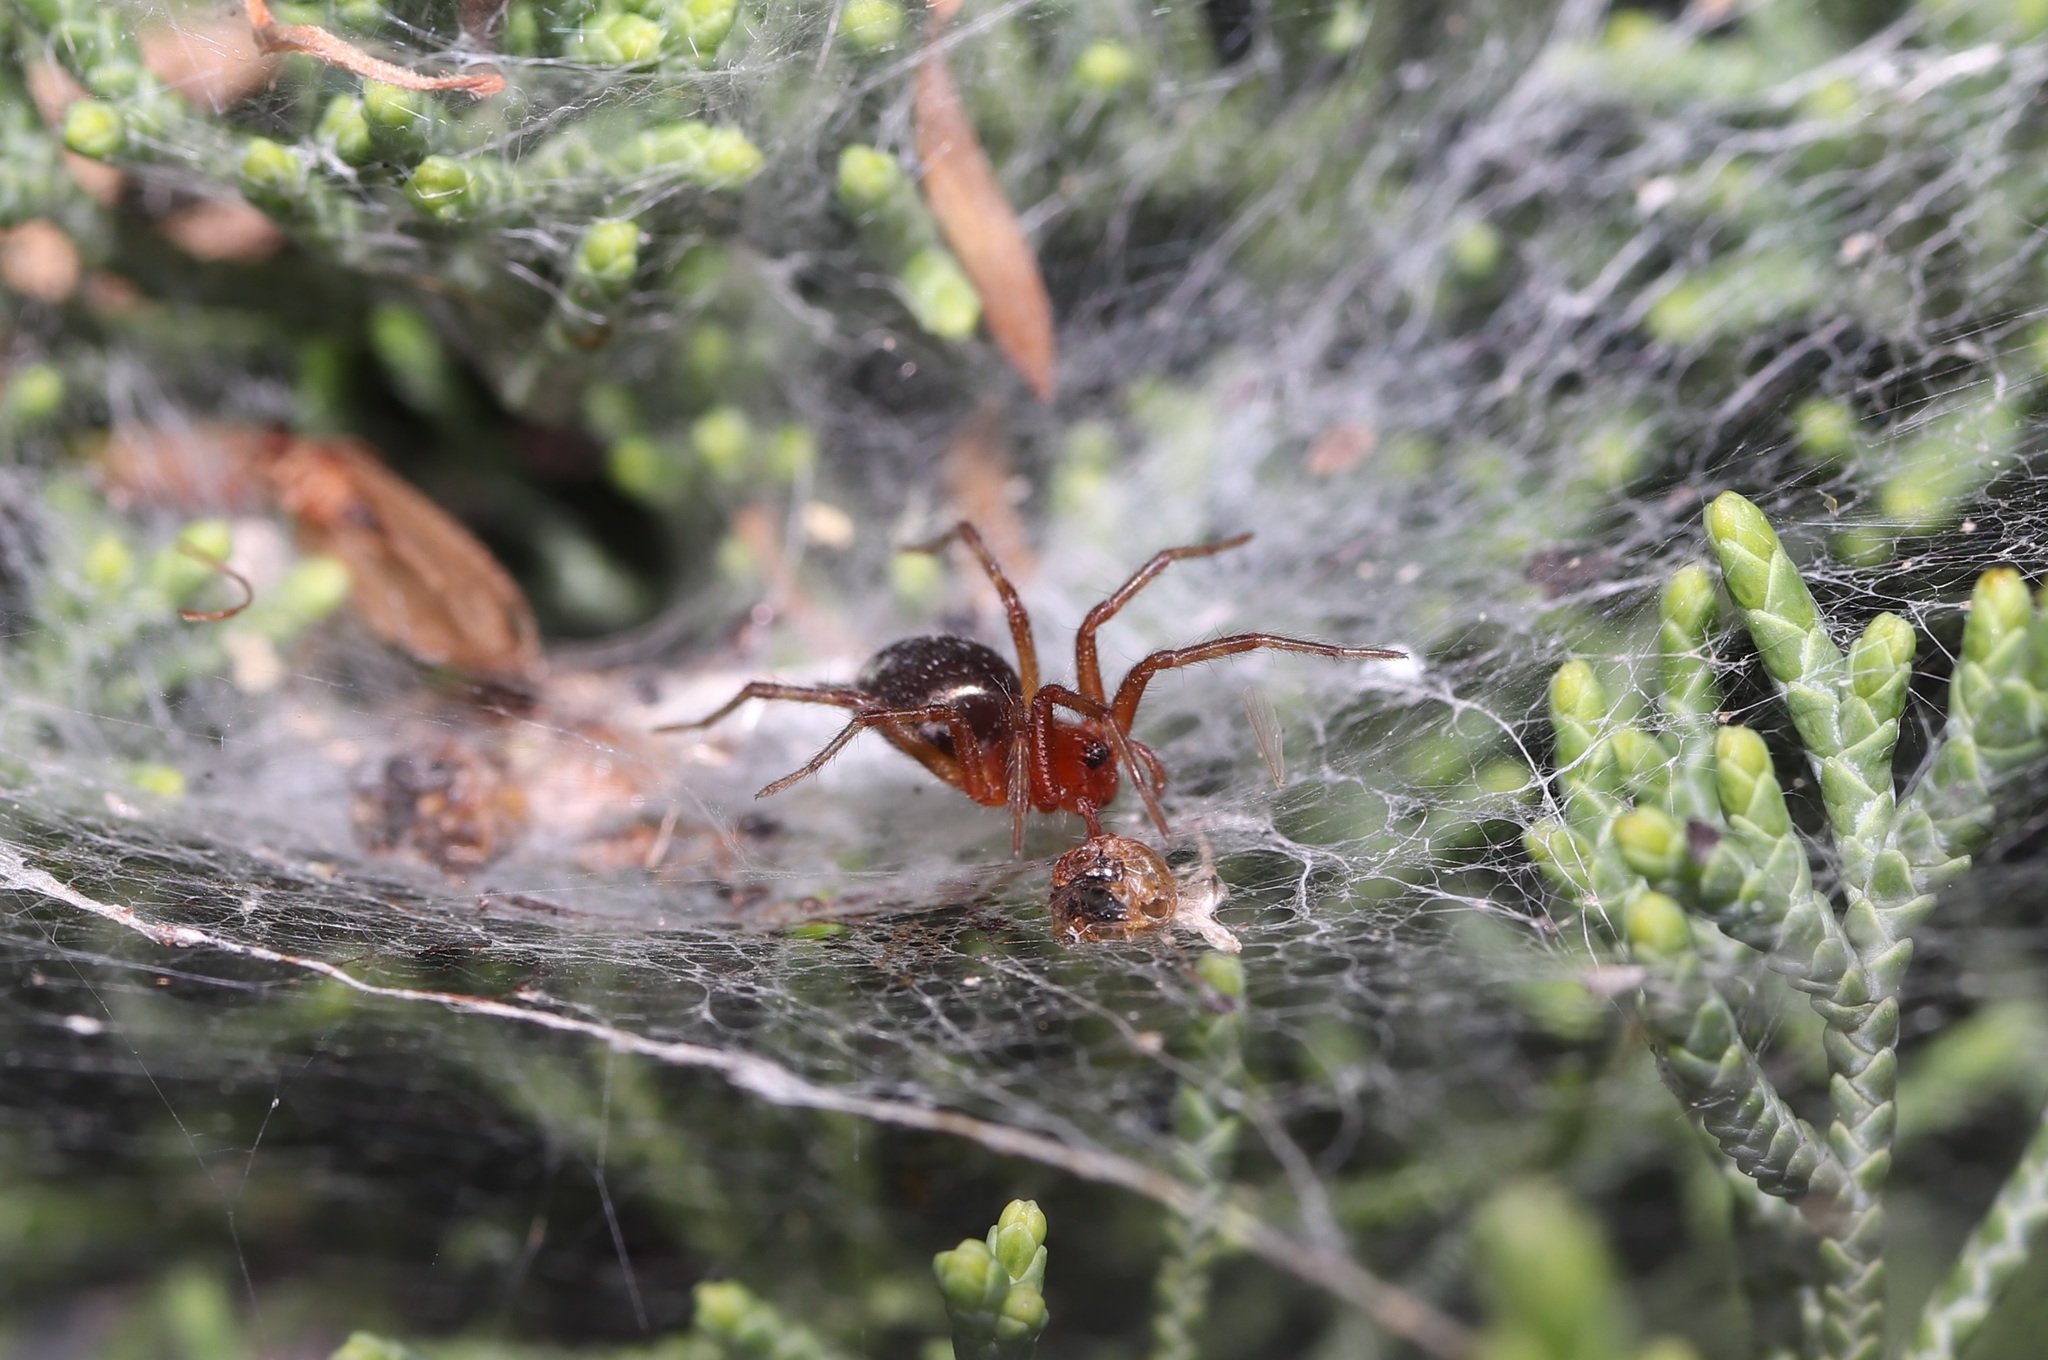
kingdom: Animalia
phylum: Arthropoda
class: Arachnida
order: Araneae
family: Agelenidae
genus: Agelena
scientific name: Agelena silvatica
